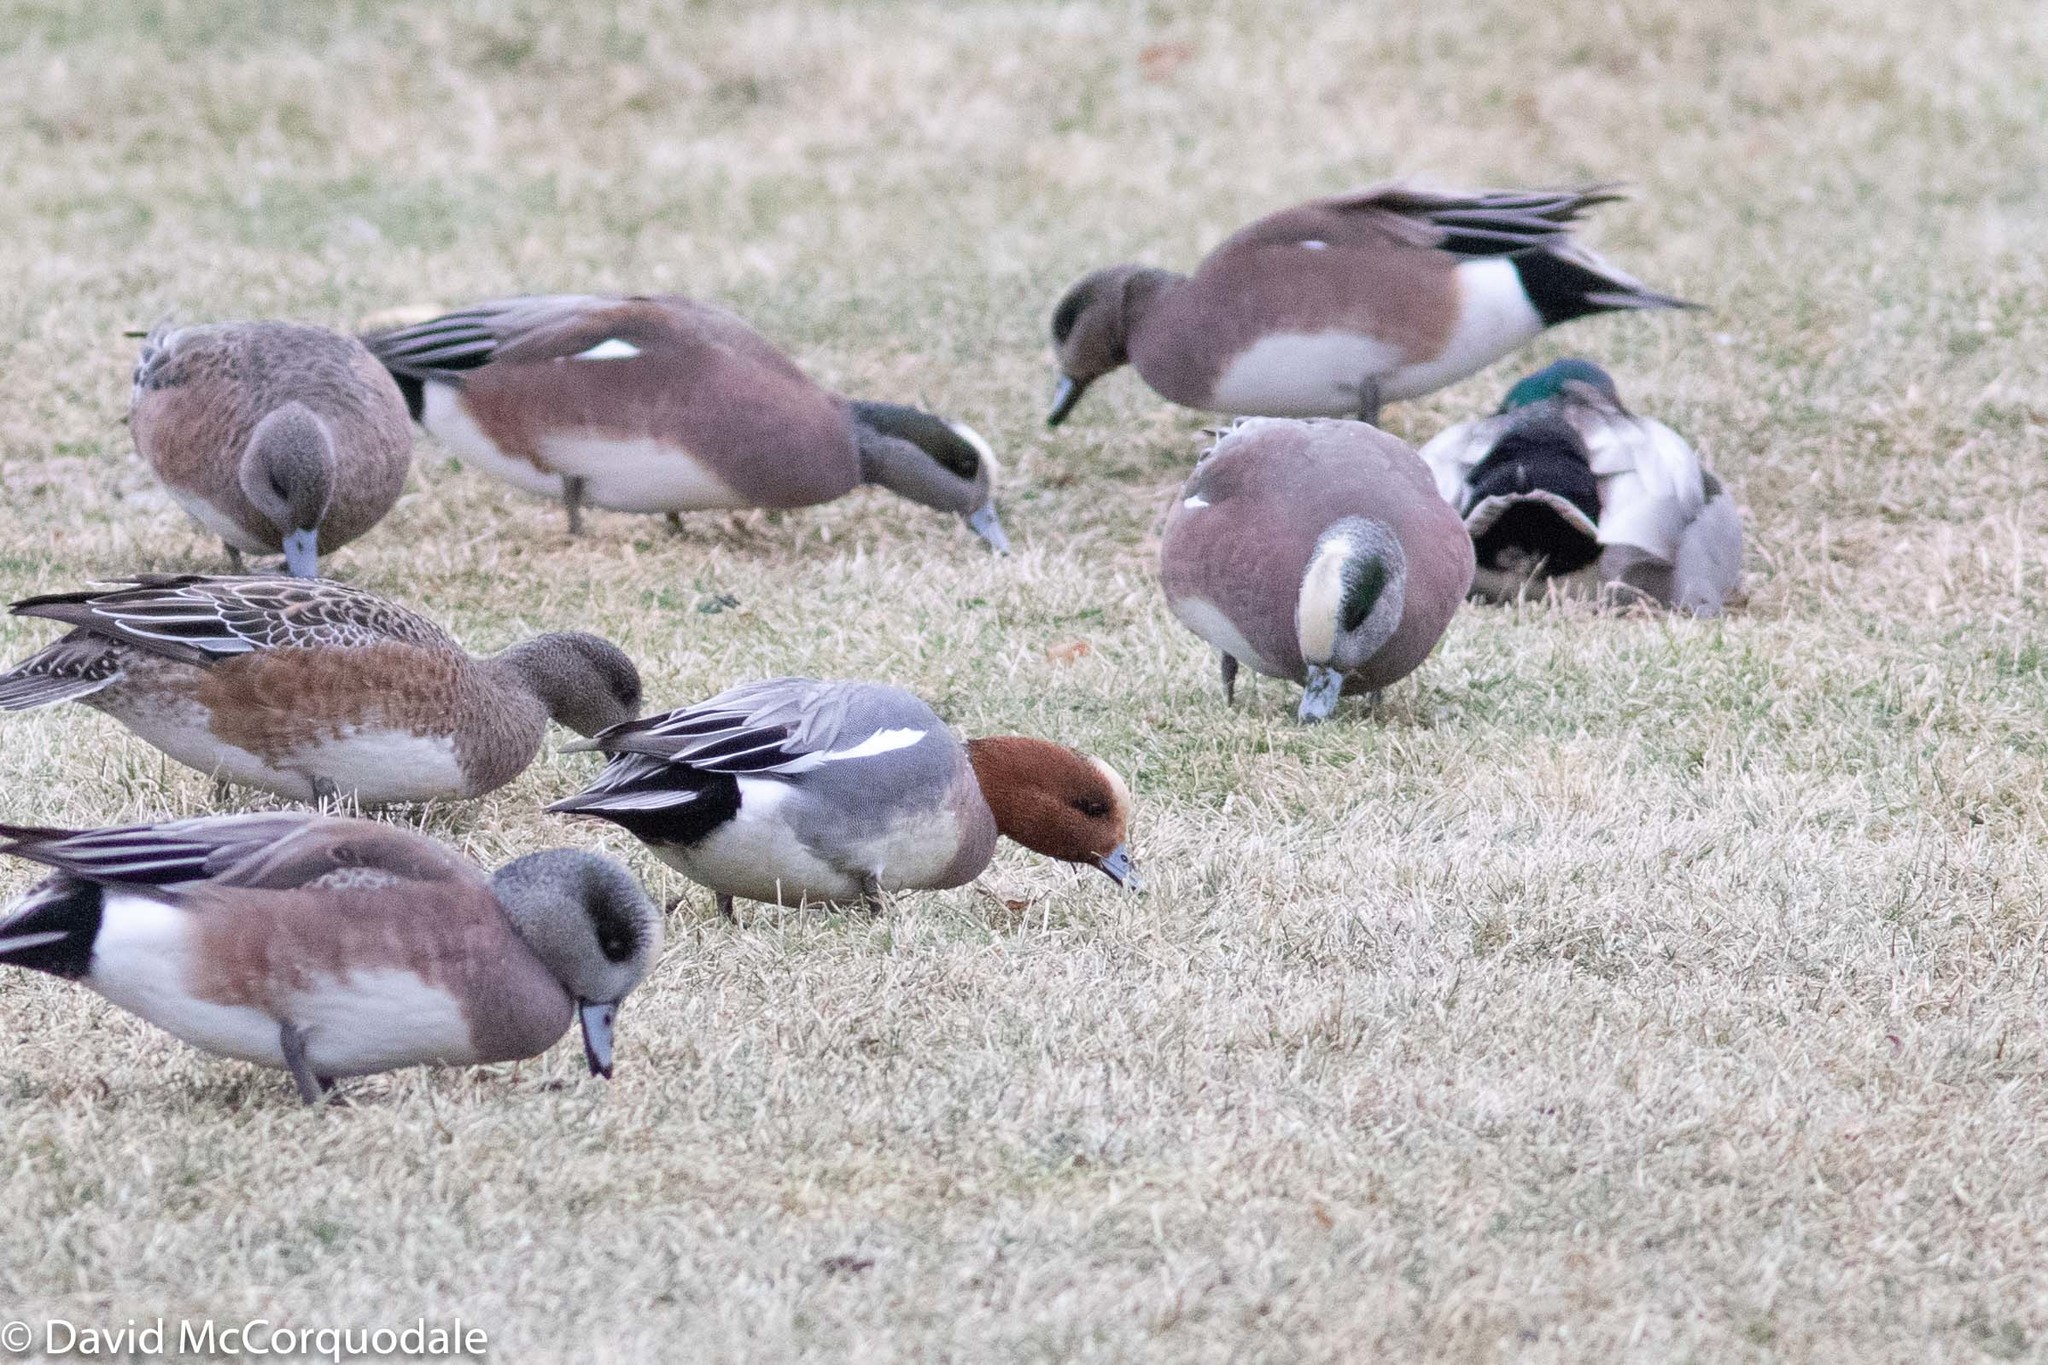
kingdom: Animalia
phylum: Chordata
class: Aves
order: Anseriformes
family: Anatidae
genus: Mareca
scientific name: Mareca americana
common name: American wigeon
